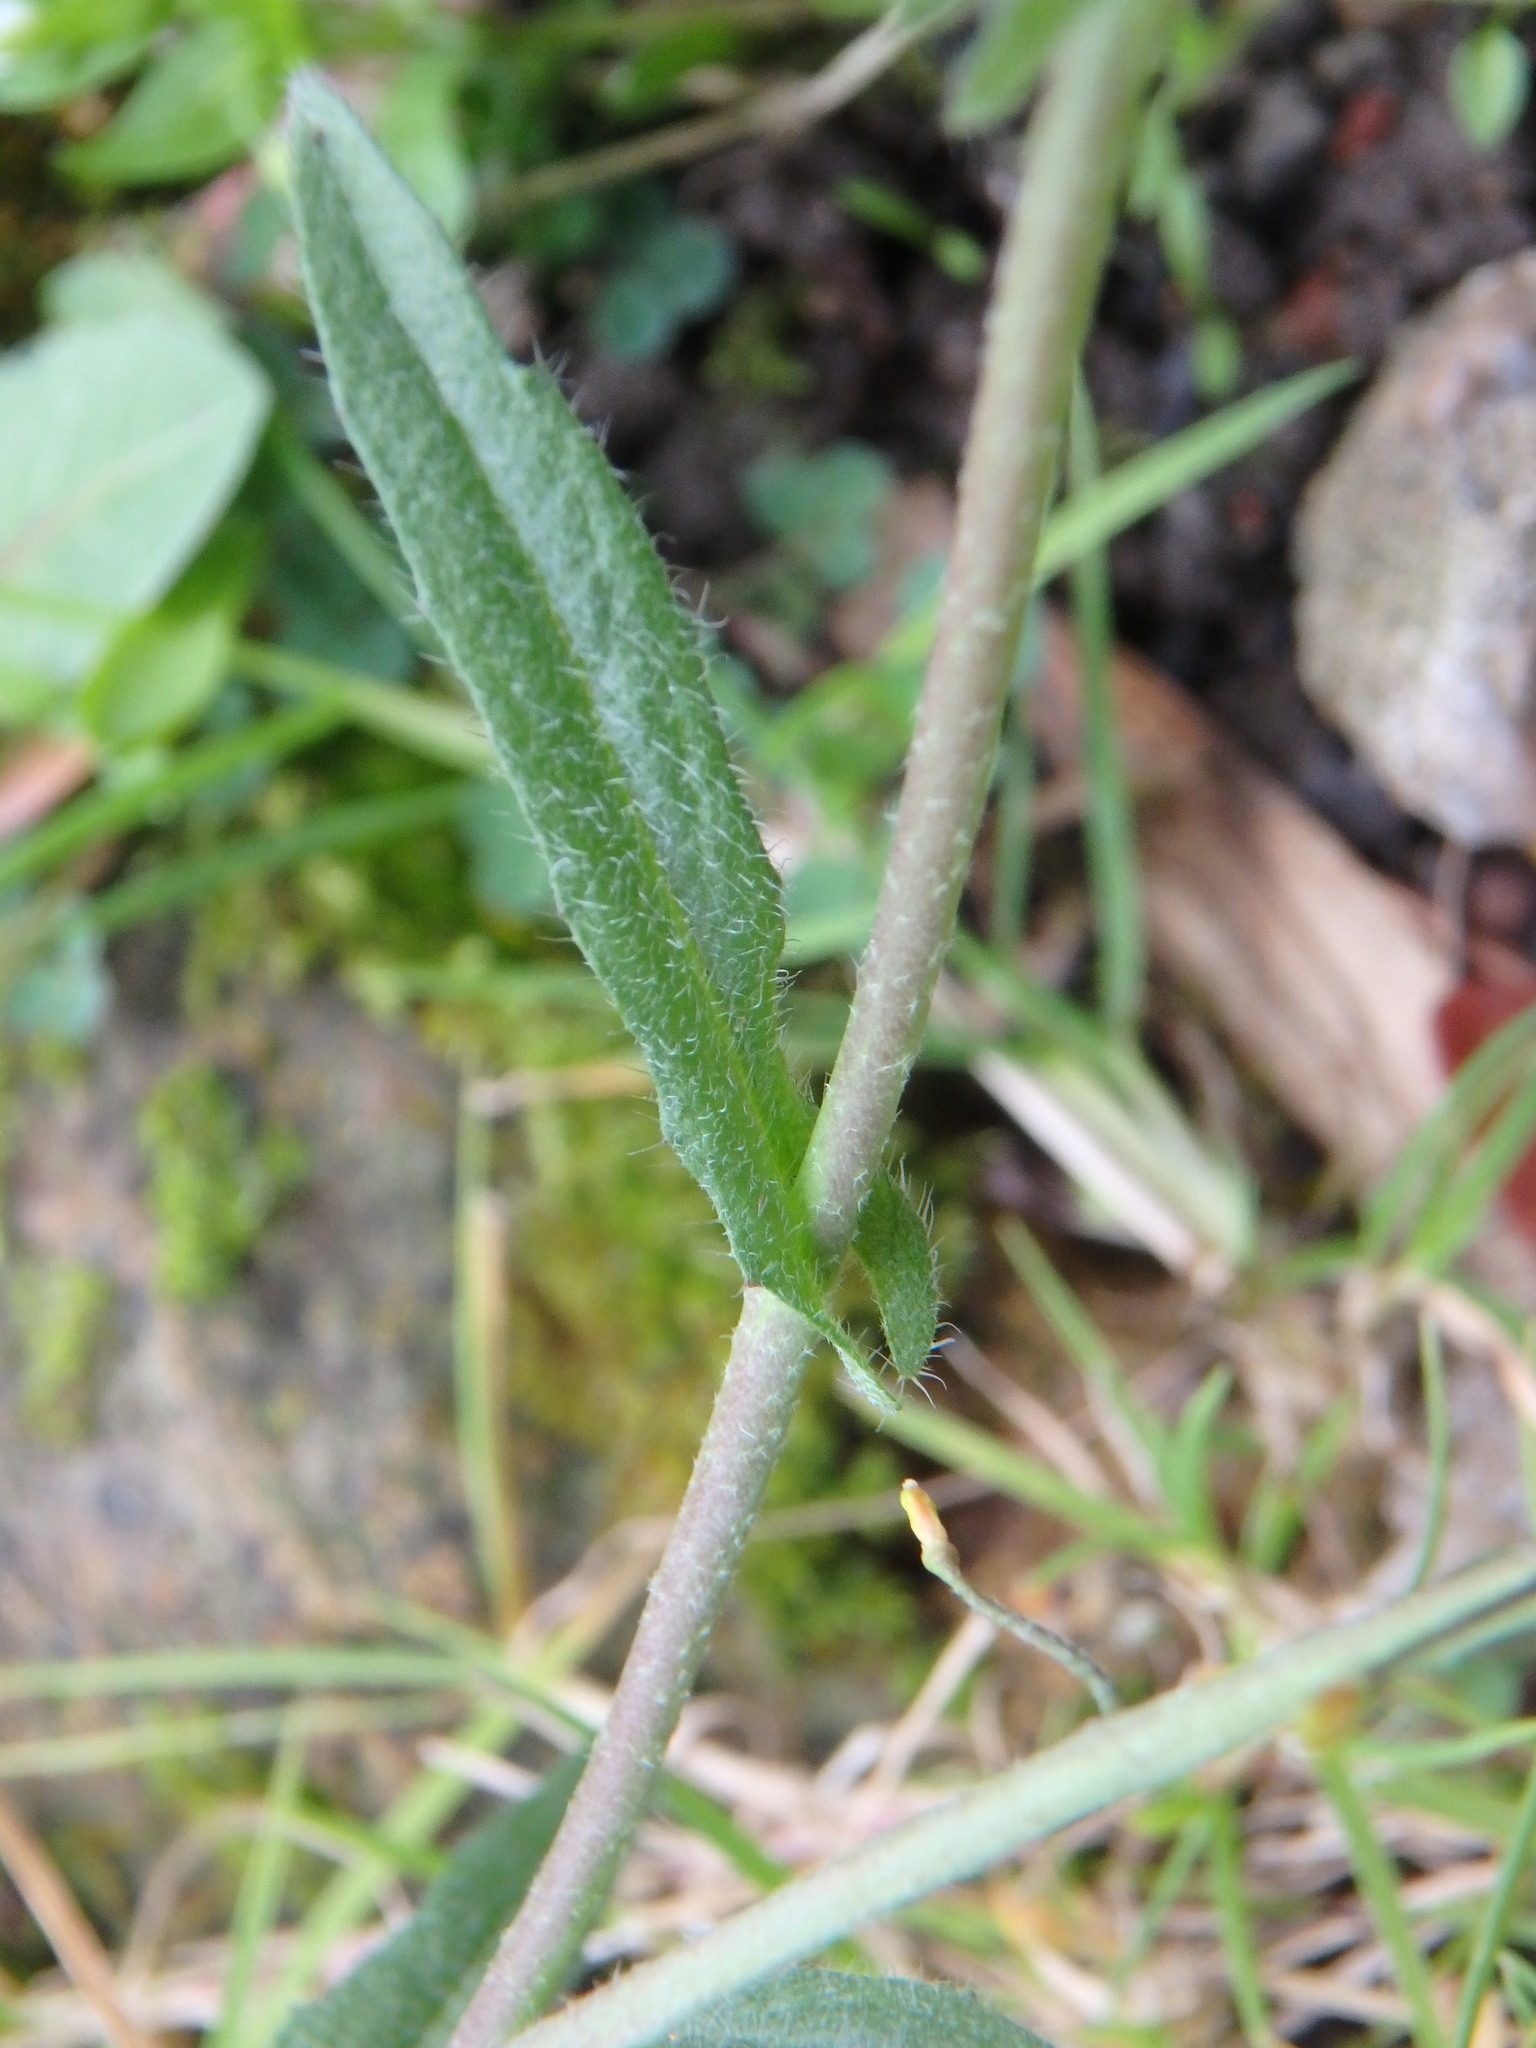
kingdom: Plantae
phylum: Tracheophyta
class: Magnoliopsida
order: Brassicales
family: Brassicaceae
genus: Capsella
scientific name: Capsella bursa-pastoris
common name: Shepherd's purse
